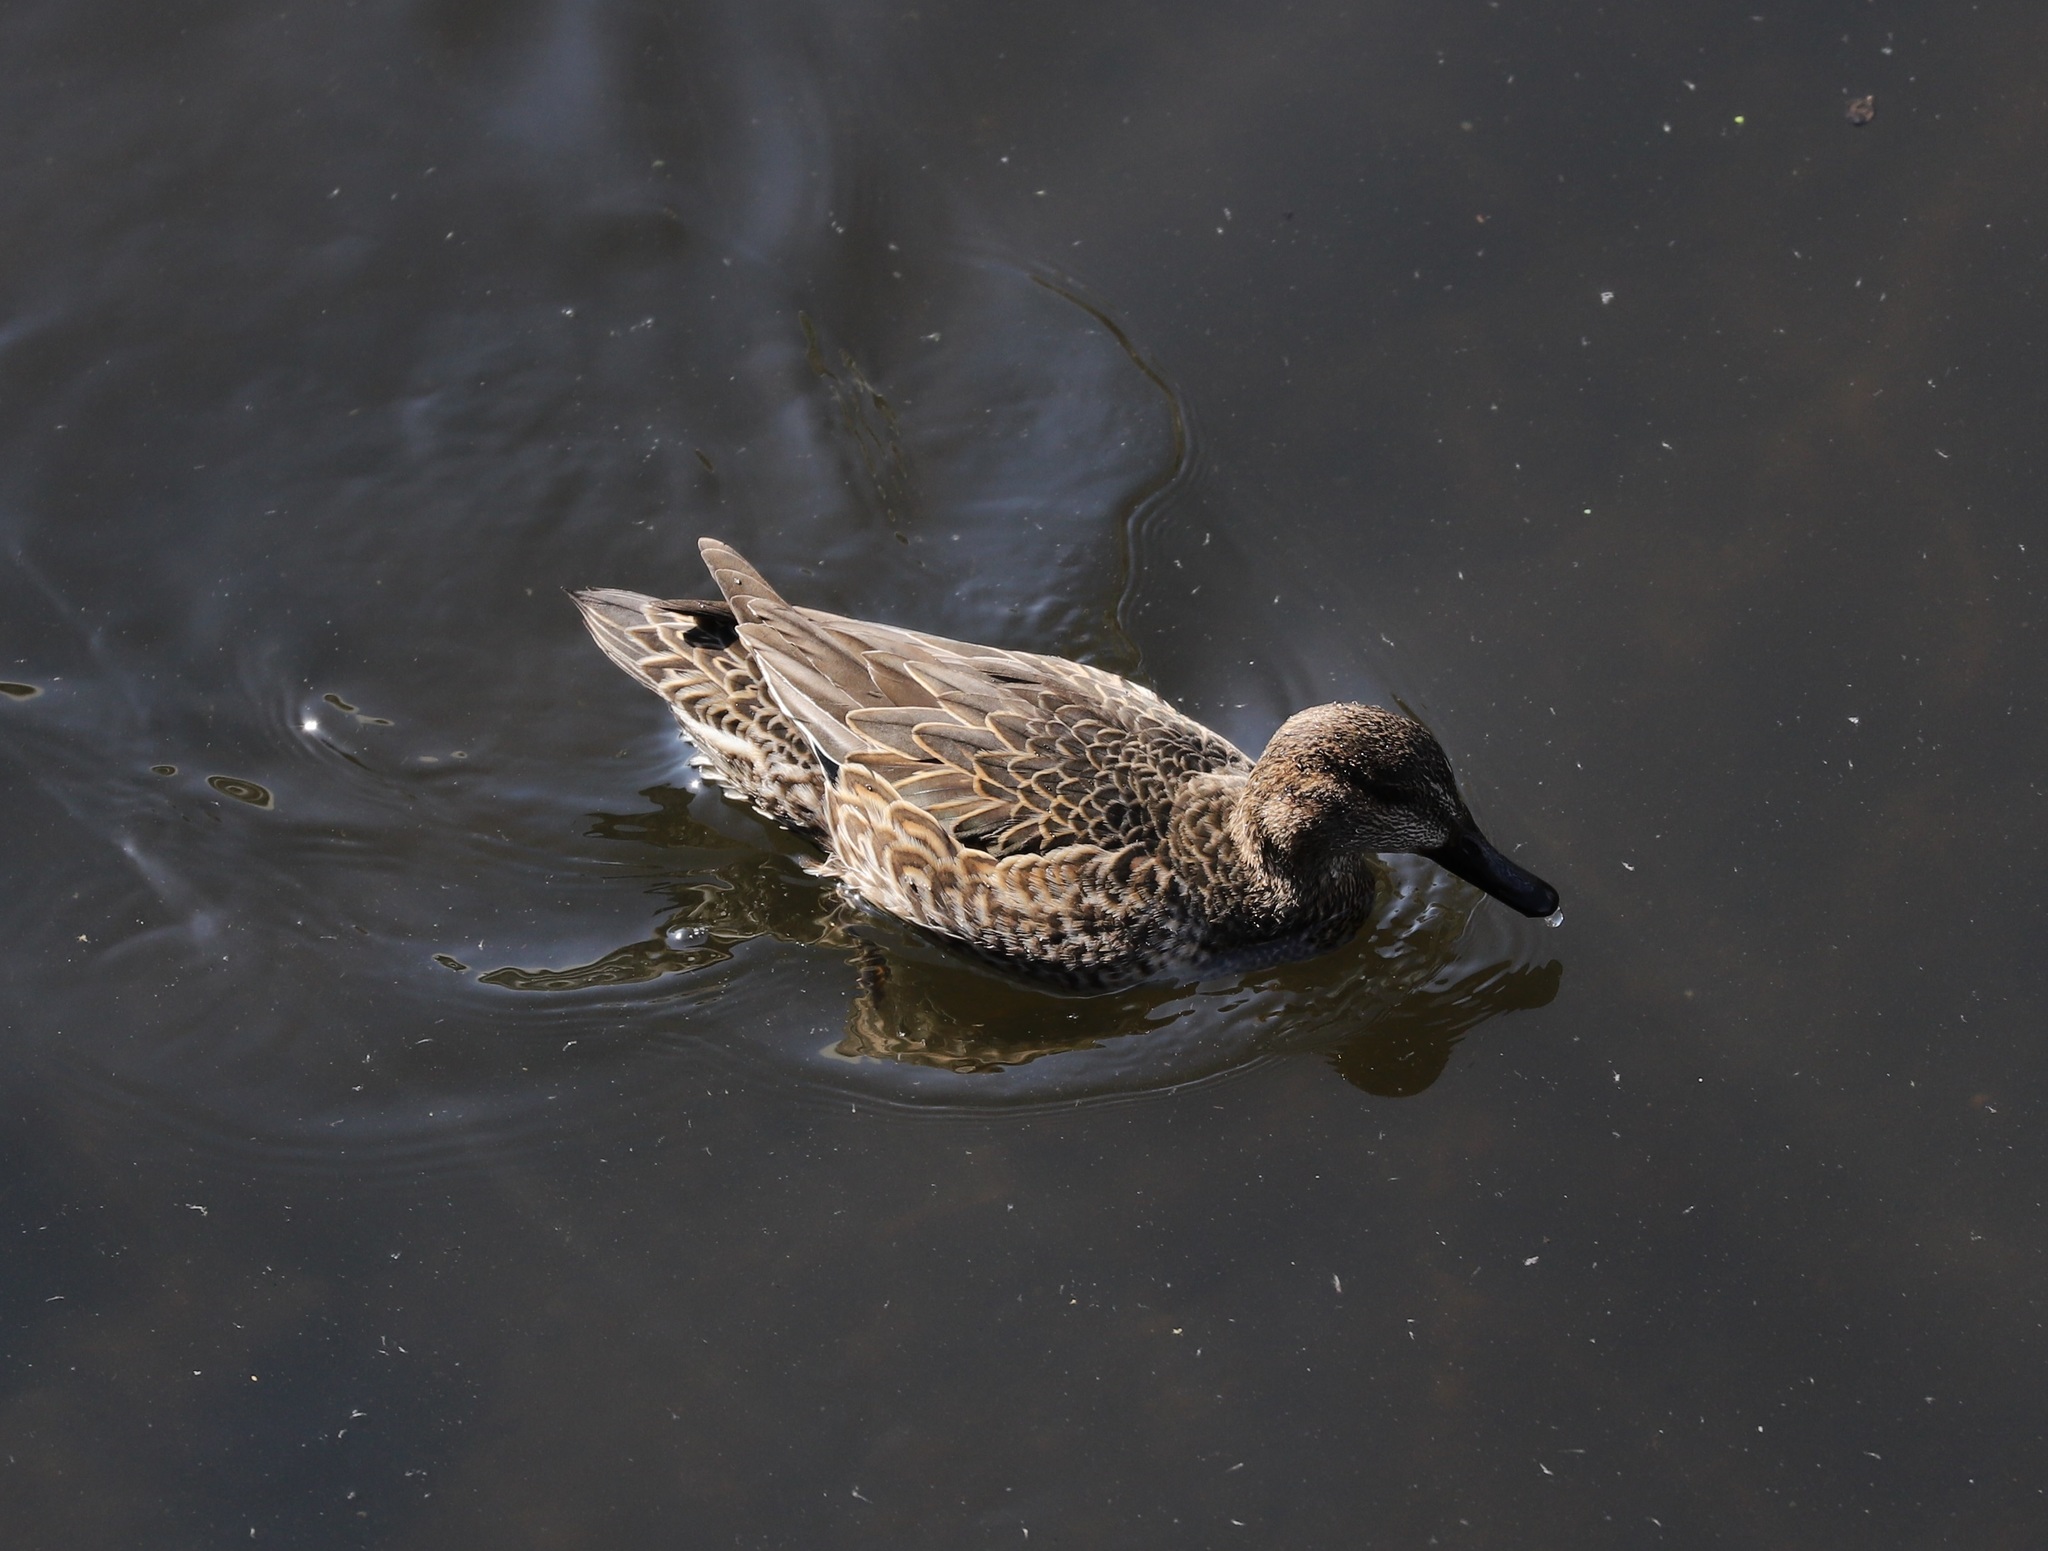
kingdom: Animalia
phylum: Chordata
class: Aves
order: Anseriformes
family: Anatidae
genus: Anas
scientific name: Anas crecca
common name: Eurasian teal
